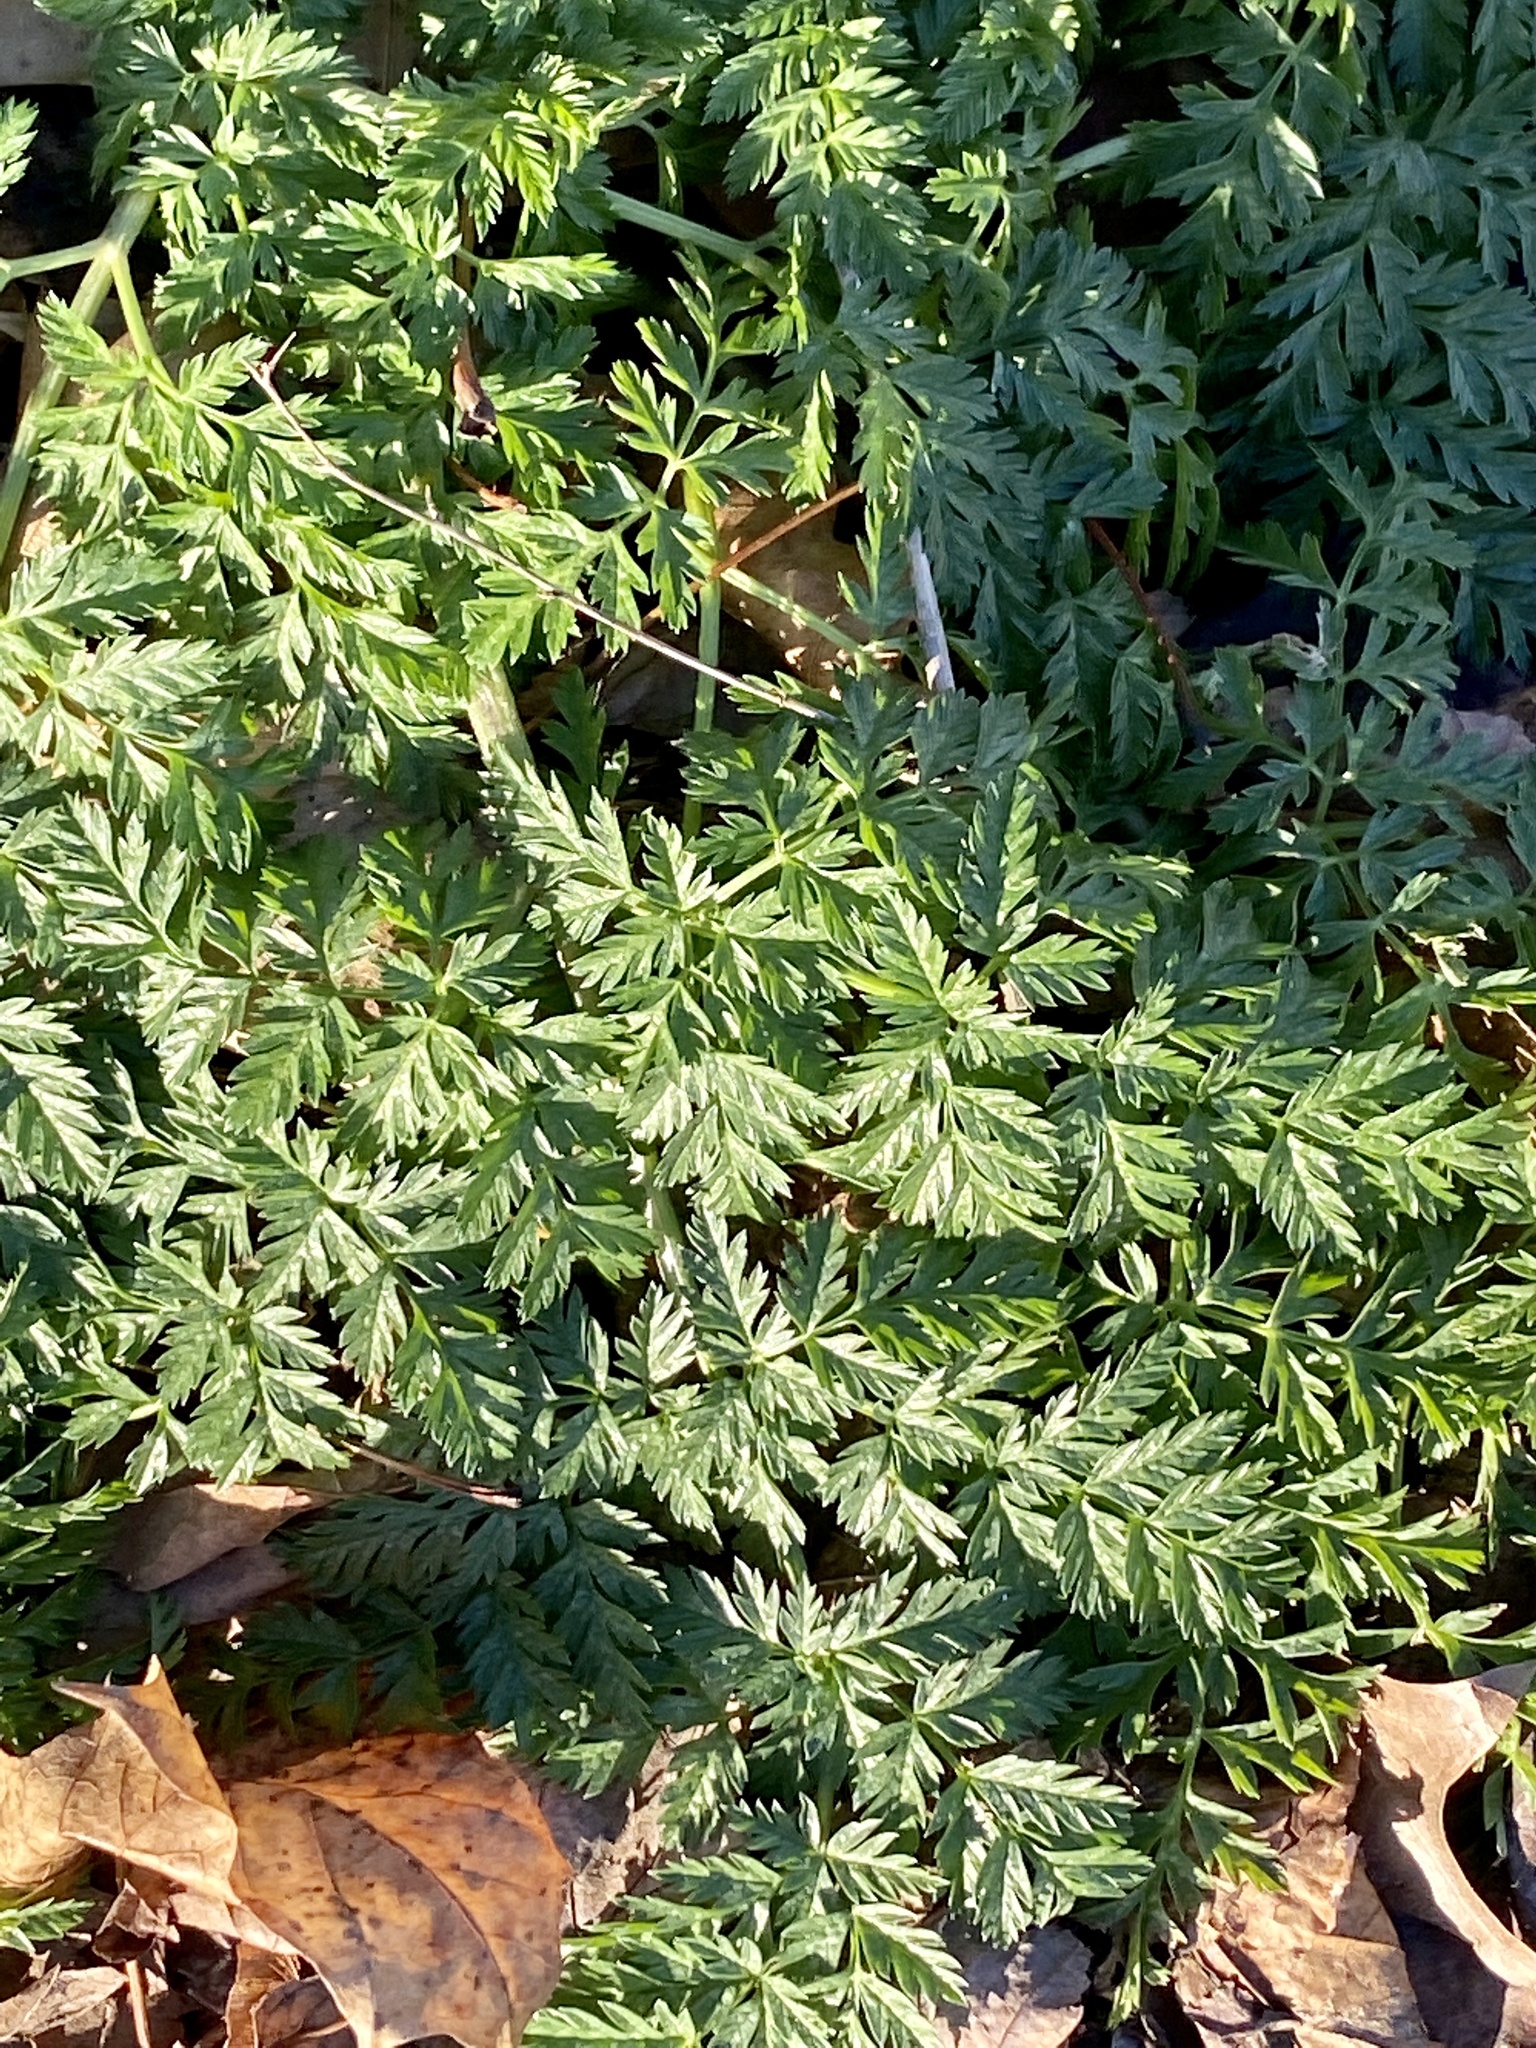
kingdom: Plantae
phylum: Tracheophyta
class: Magnoliopsida
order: Apiales
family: Apiaceae
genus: Conium
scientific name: Conium maculatum
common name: Hemlock
